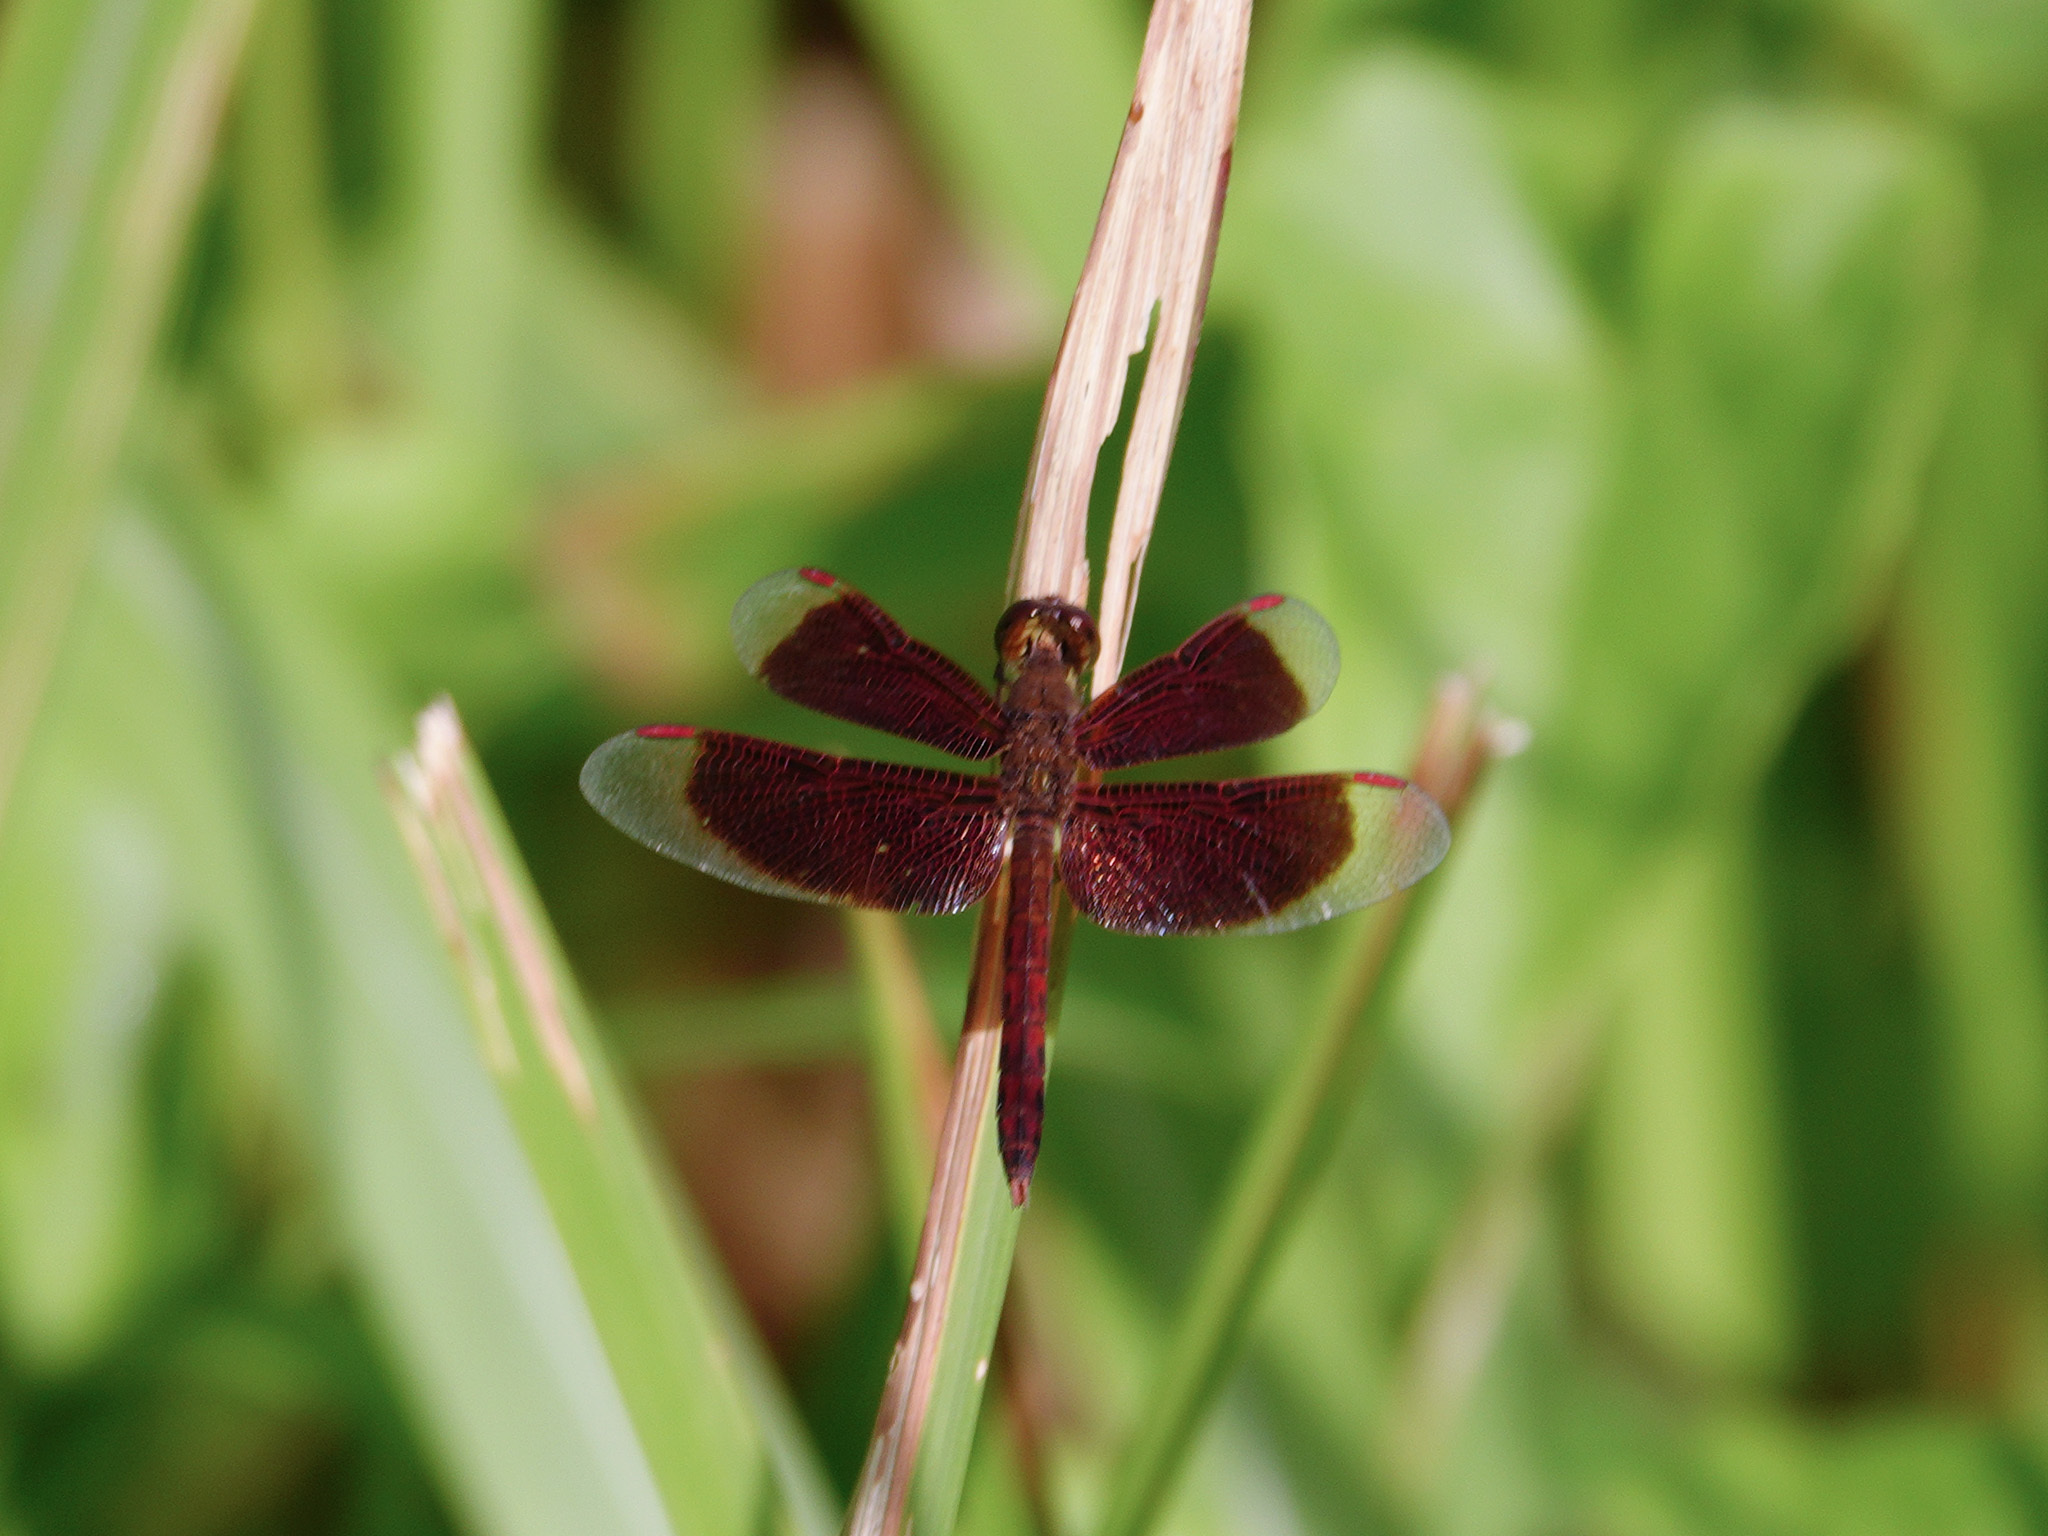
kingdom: Animalia
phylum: Arthropoda
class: Insecta
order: Odonata
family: Libellulidae
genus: Neurothemis
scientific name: Neurothemis fluctuans
